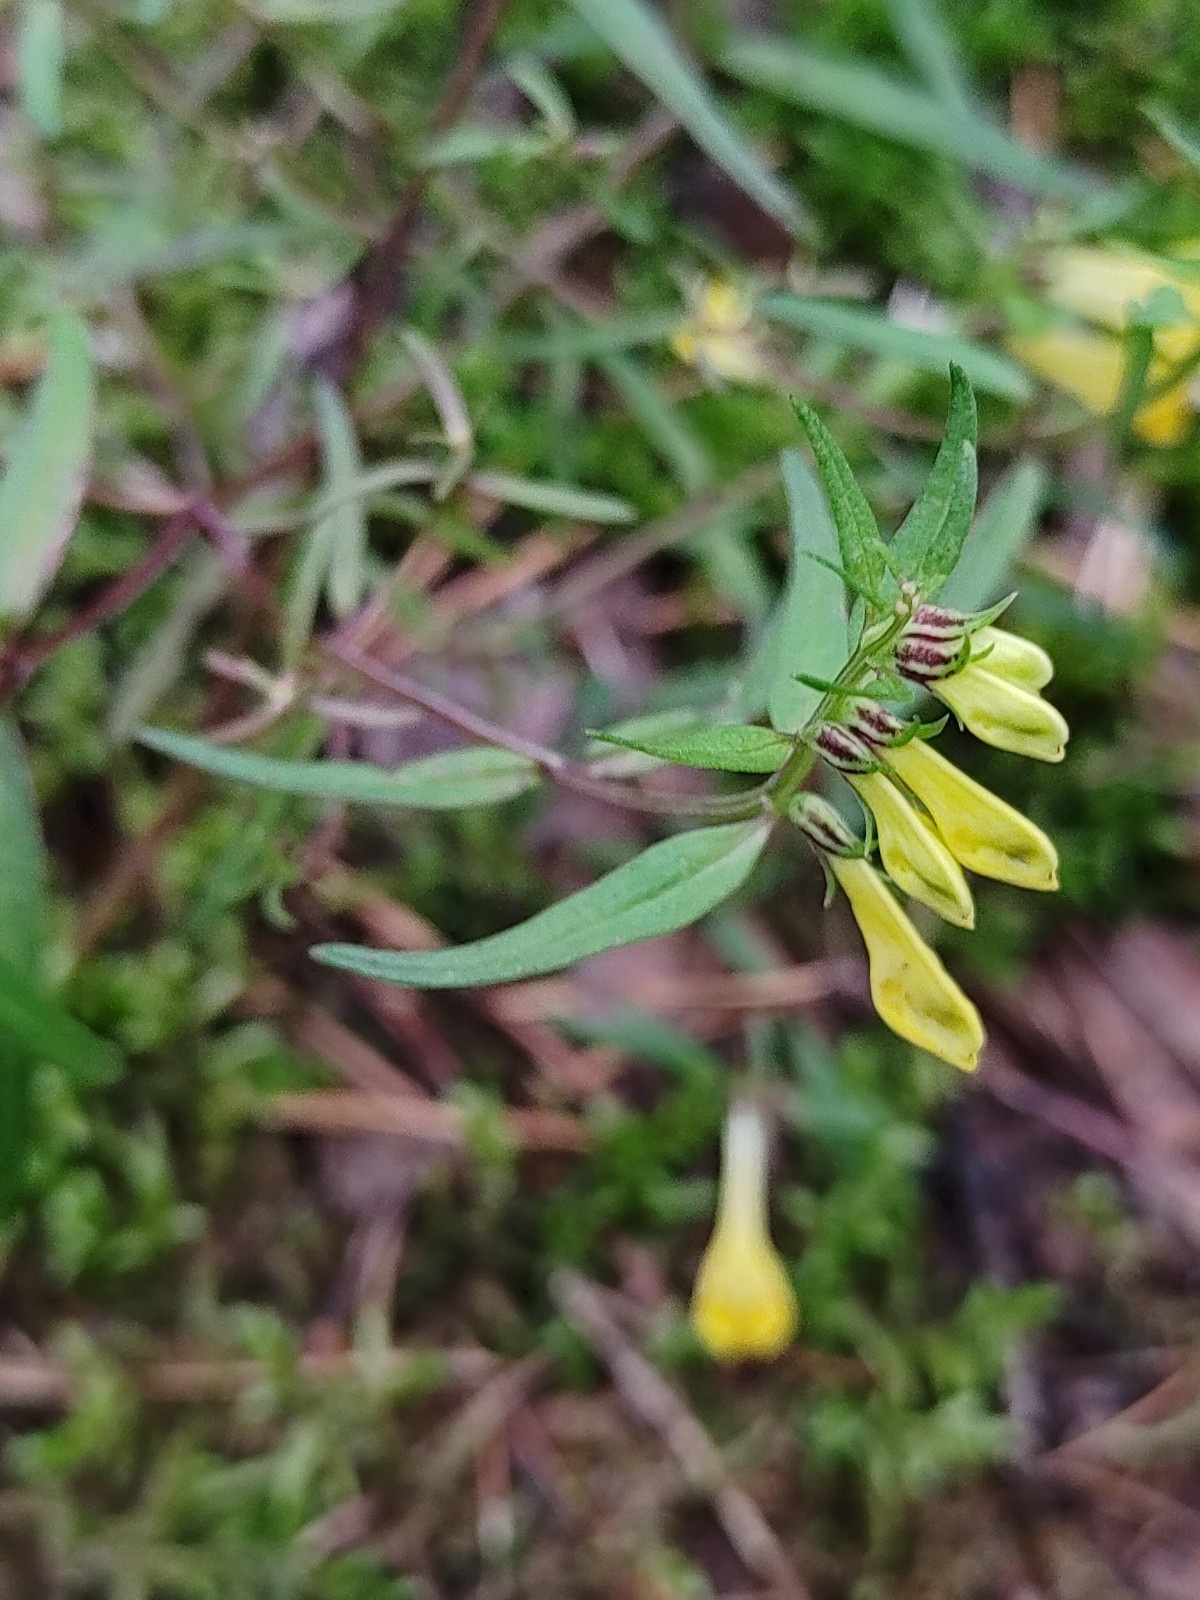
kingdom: Plantae
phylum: Tracheophyta
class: Magnoliopsida
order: Lamiales
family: Orobanchaceae
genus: Melampyrum
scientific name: Melampyrum pratense
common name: Common cow-wheat
